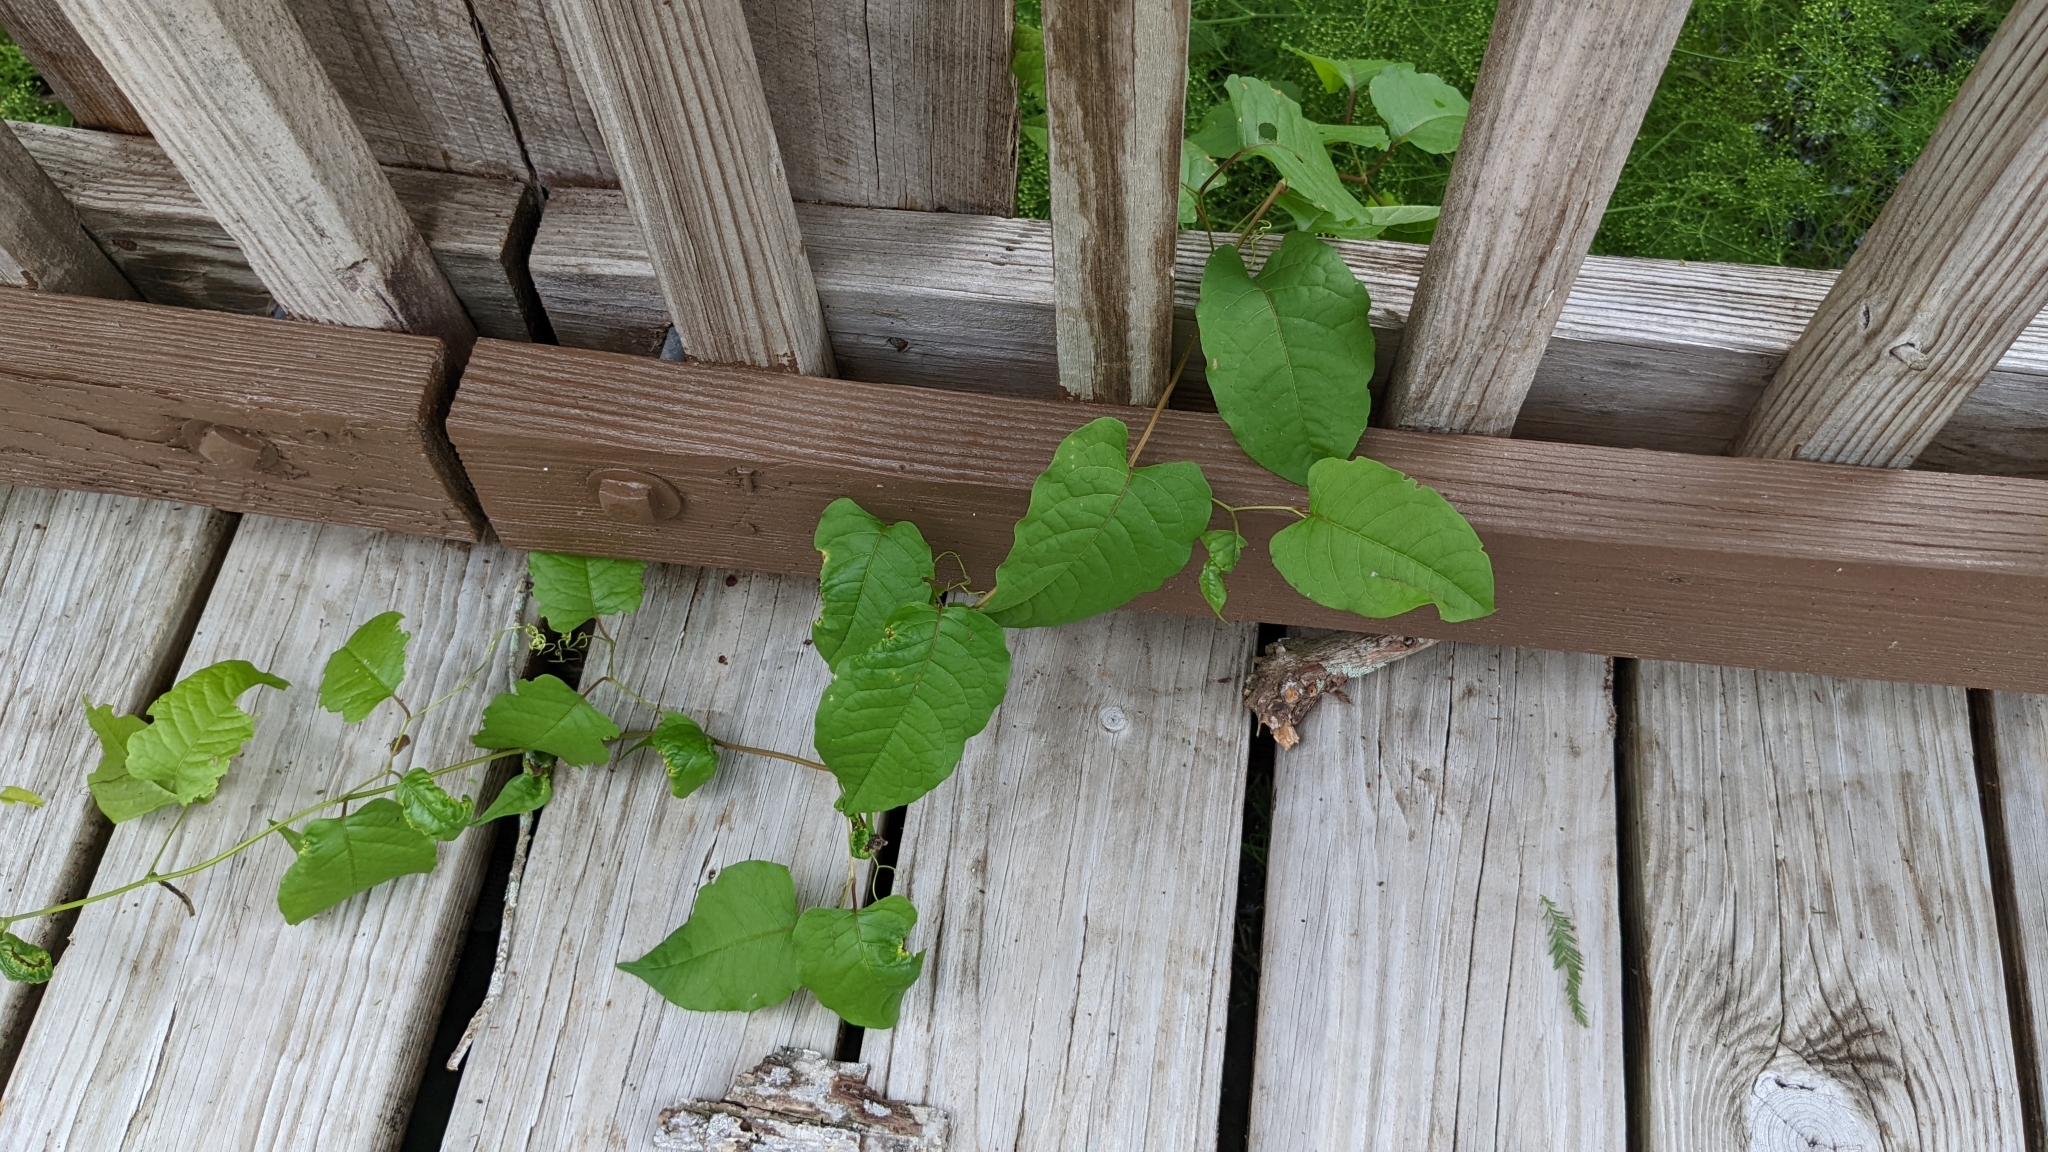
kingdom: Plantae
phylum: Tracheophyta
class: Magnoliopsida
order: Caryophyllales
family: Polygonaceae
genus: Brunnichia
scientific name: Brunnichia ovata
